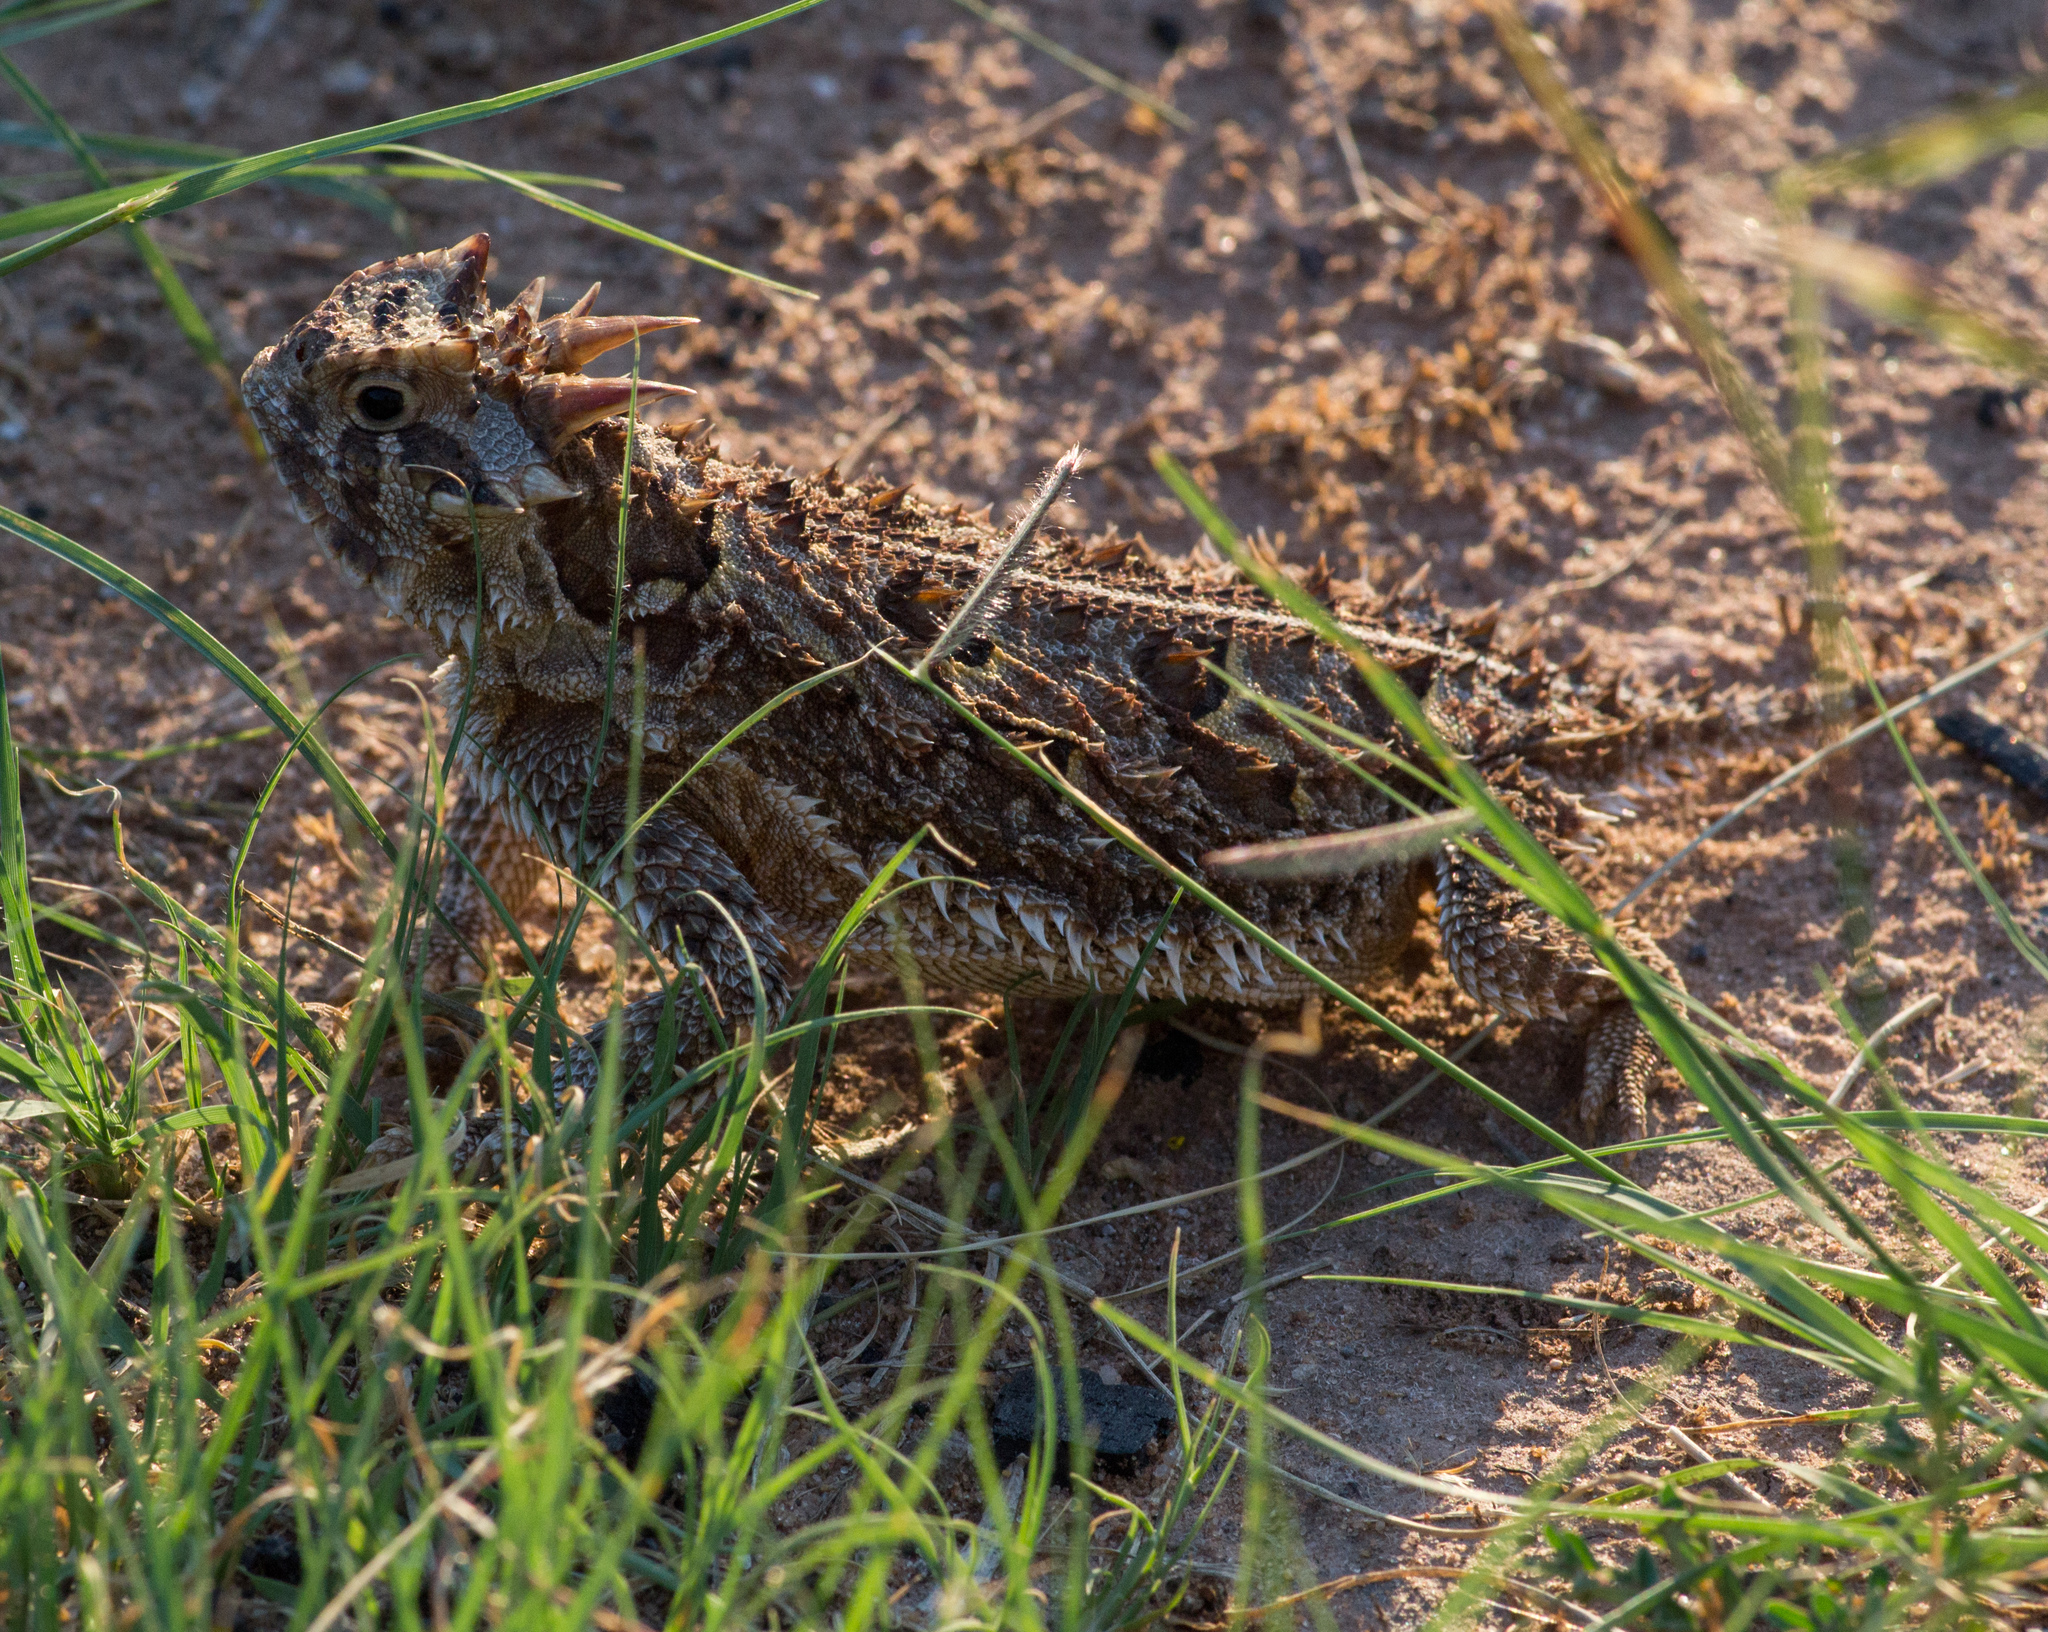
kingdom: Animalia
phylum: Chordata
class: Squamata
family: Phrynosomatidae
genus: Phrynosoma
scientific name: Phrynosoma cornutum
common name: Texas horned lizard
